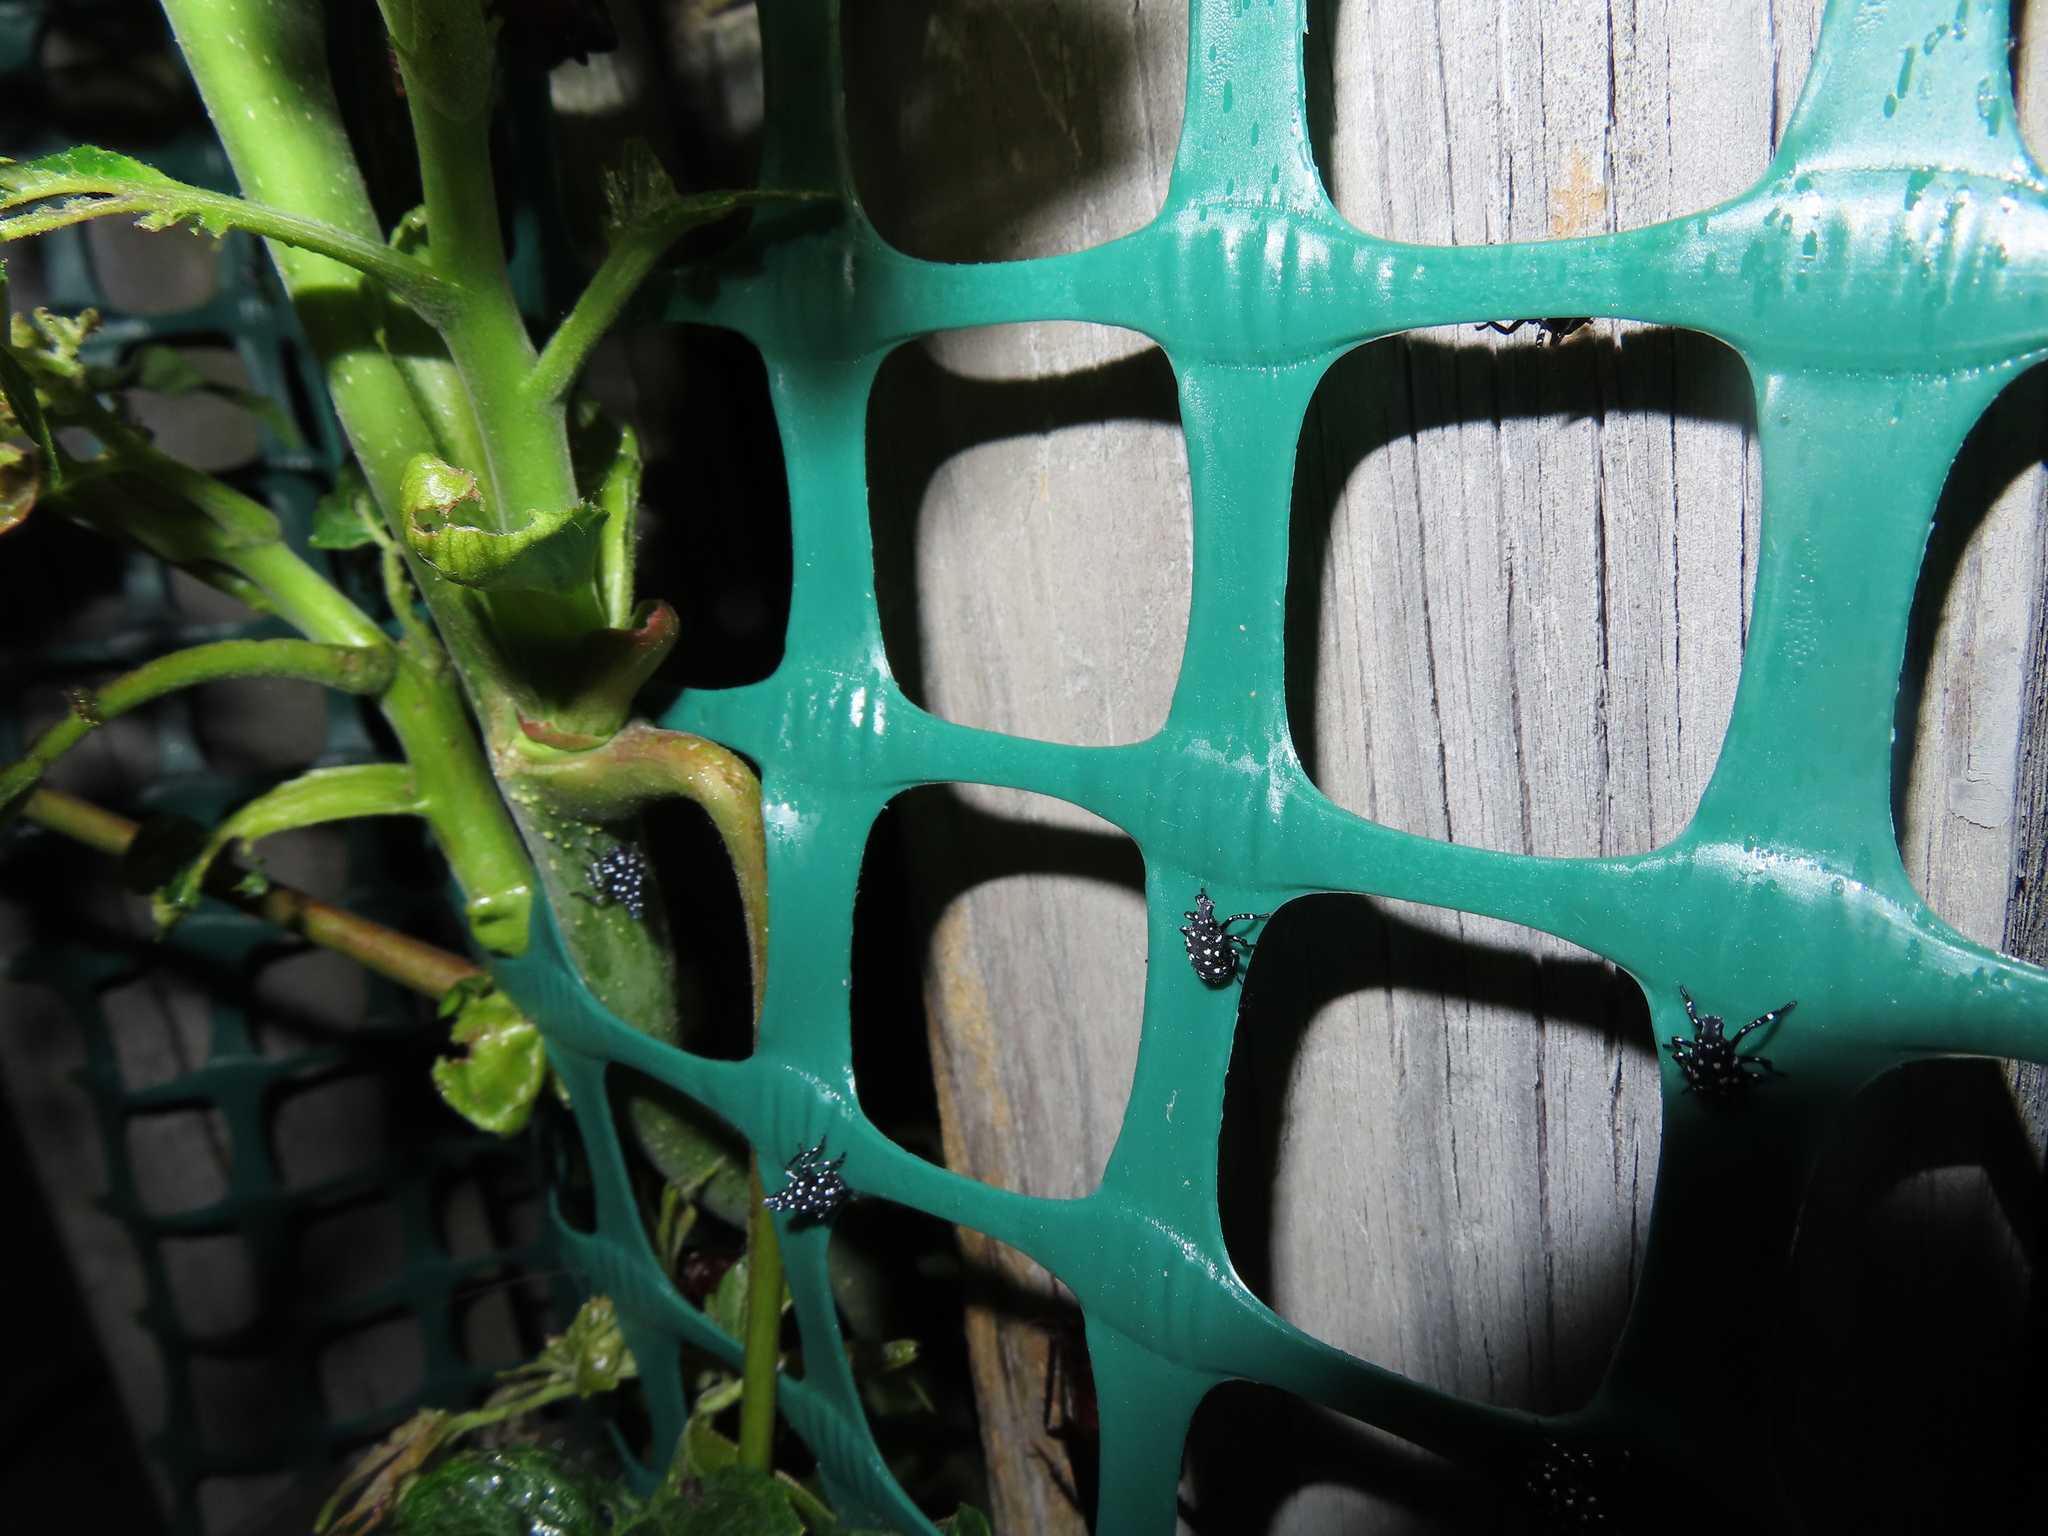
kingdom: Animalia
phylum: Arthropoda
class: Insecta
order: Hemiptera
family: Fulgoridae
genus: Lycorma
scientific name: Lycorma delicatula
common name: Spotted lanternfly
